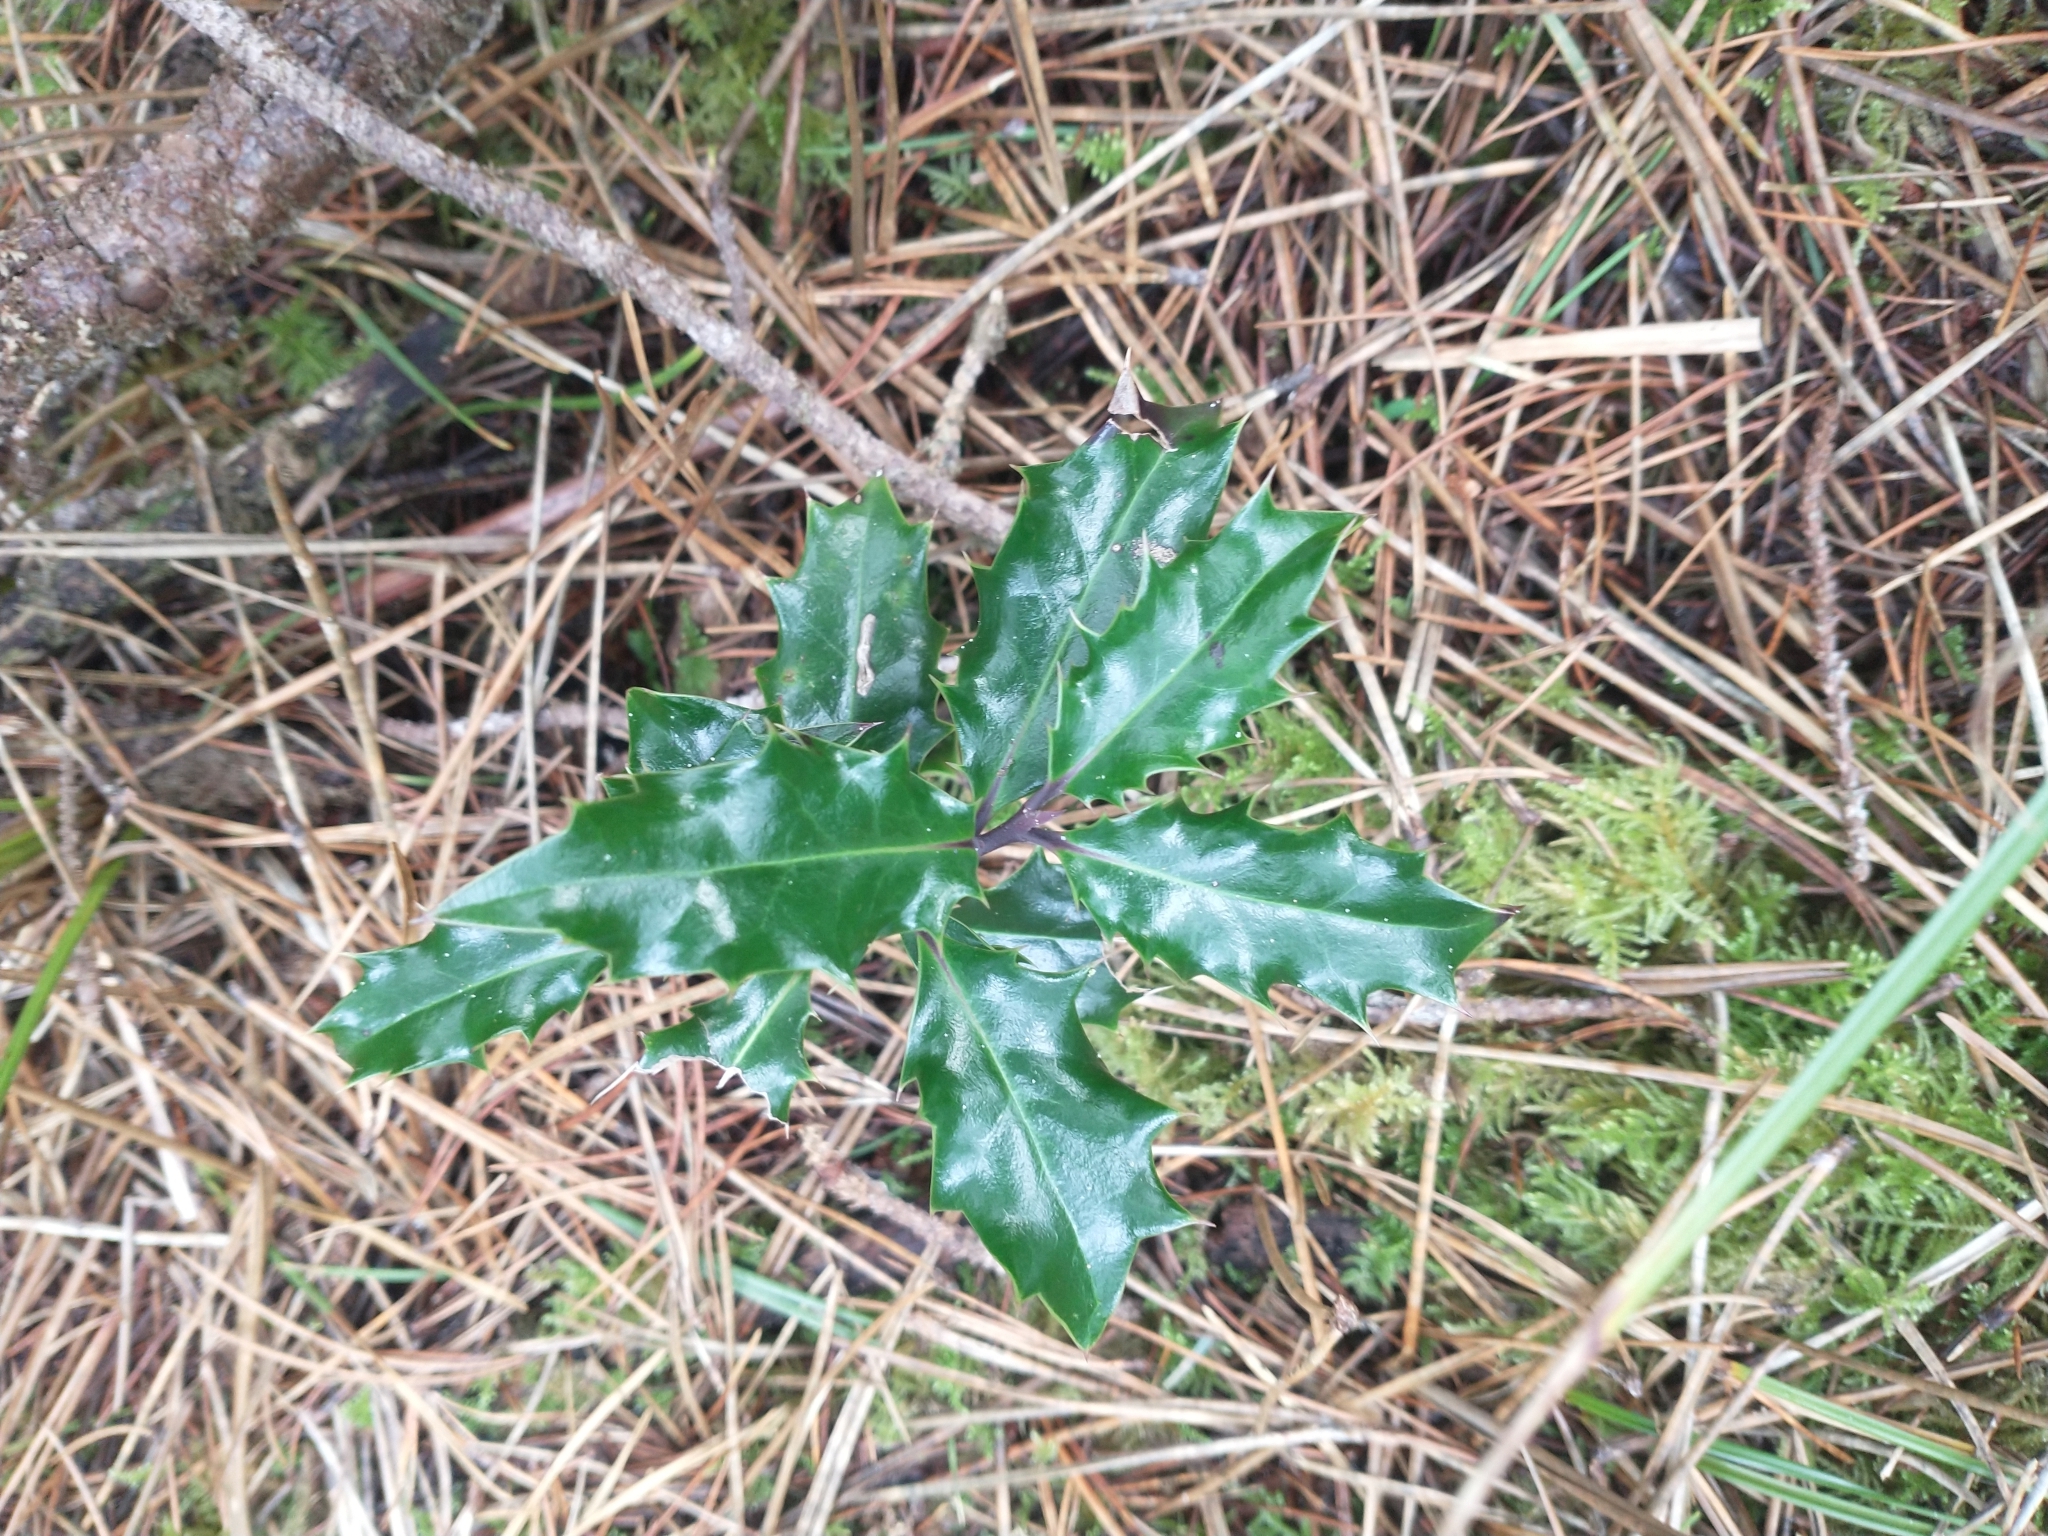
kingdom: Plantae
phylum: Tracheophyta
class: Magnoliopsida
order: Aquifoliales
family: Aquifoliaceae
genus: Ilex
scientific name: Ilex aquifolium
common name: English holly
